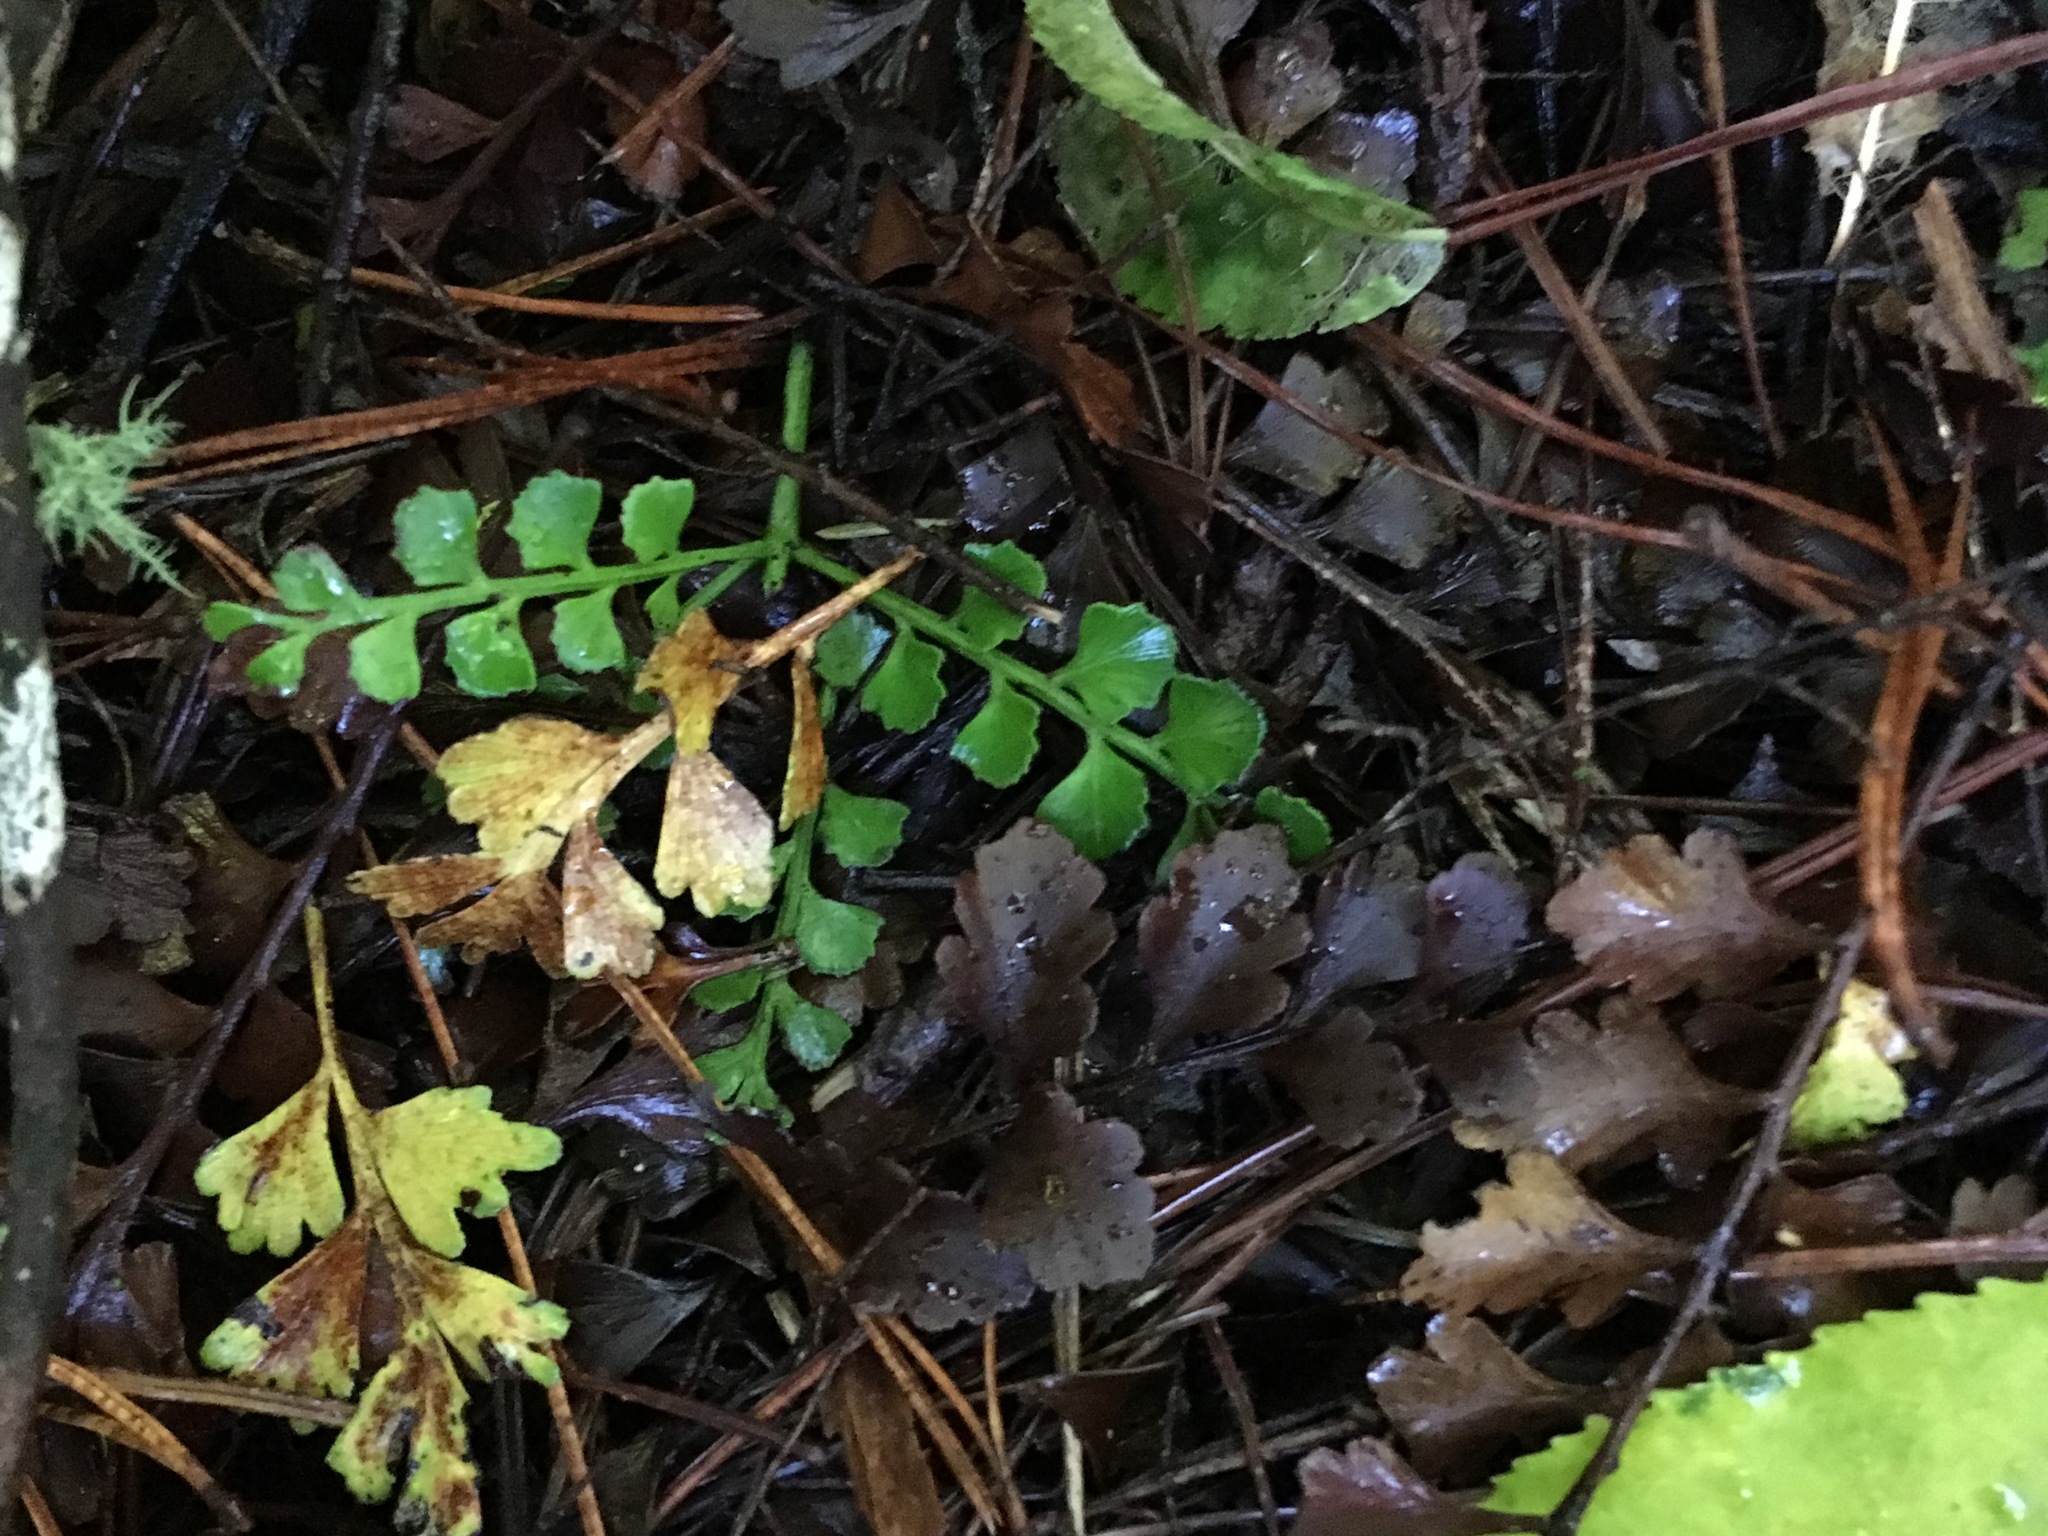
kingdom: Plantae
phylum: Tracheophyta
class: Pinopsida
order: Pinales
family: Phyllocladaceae
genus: Phyllocladus
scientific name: Phyllocladus trichomanoides
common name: Celery pine
